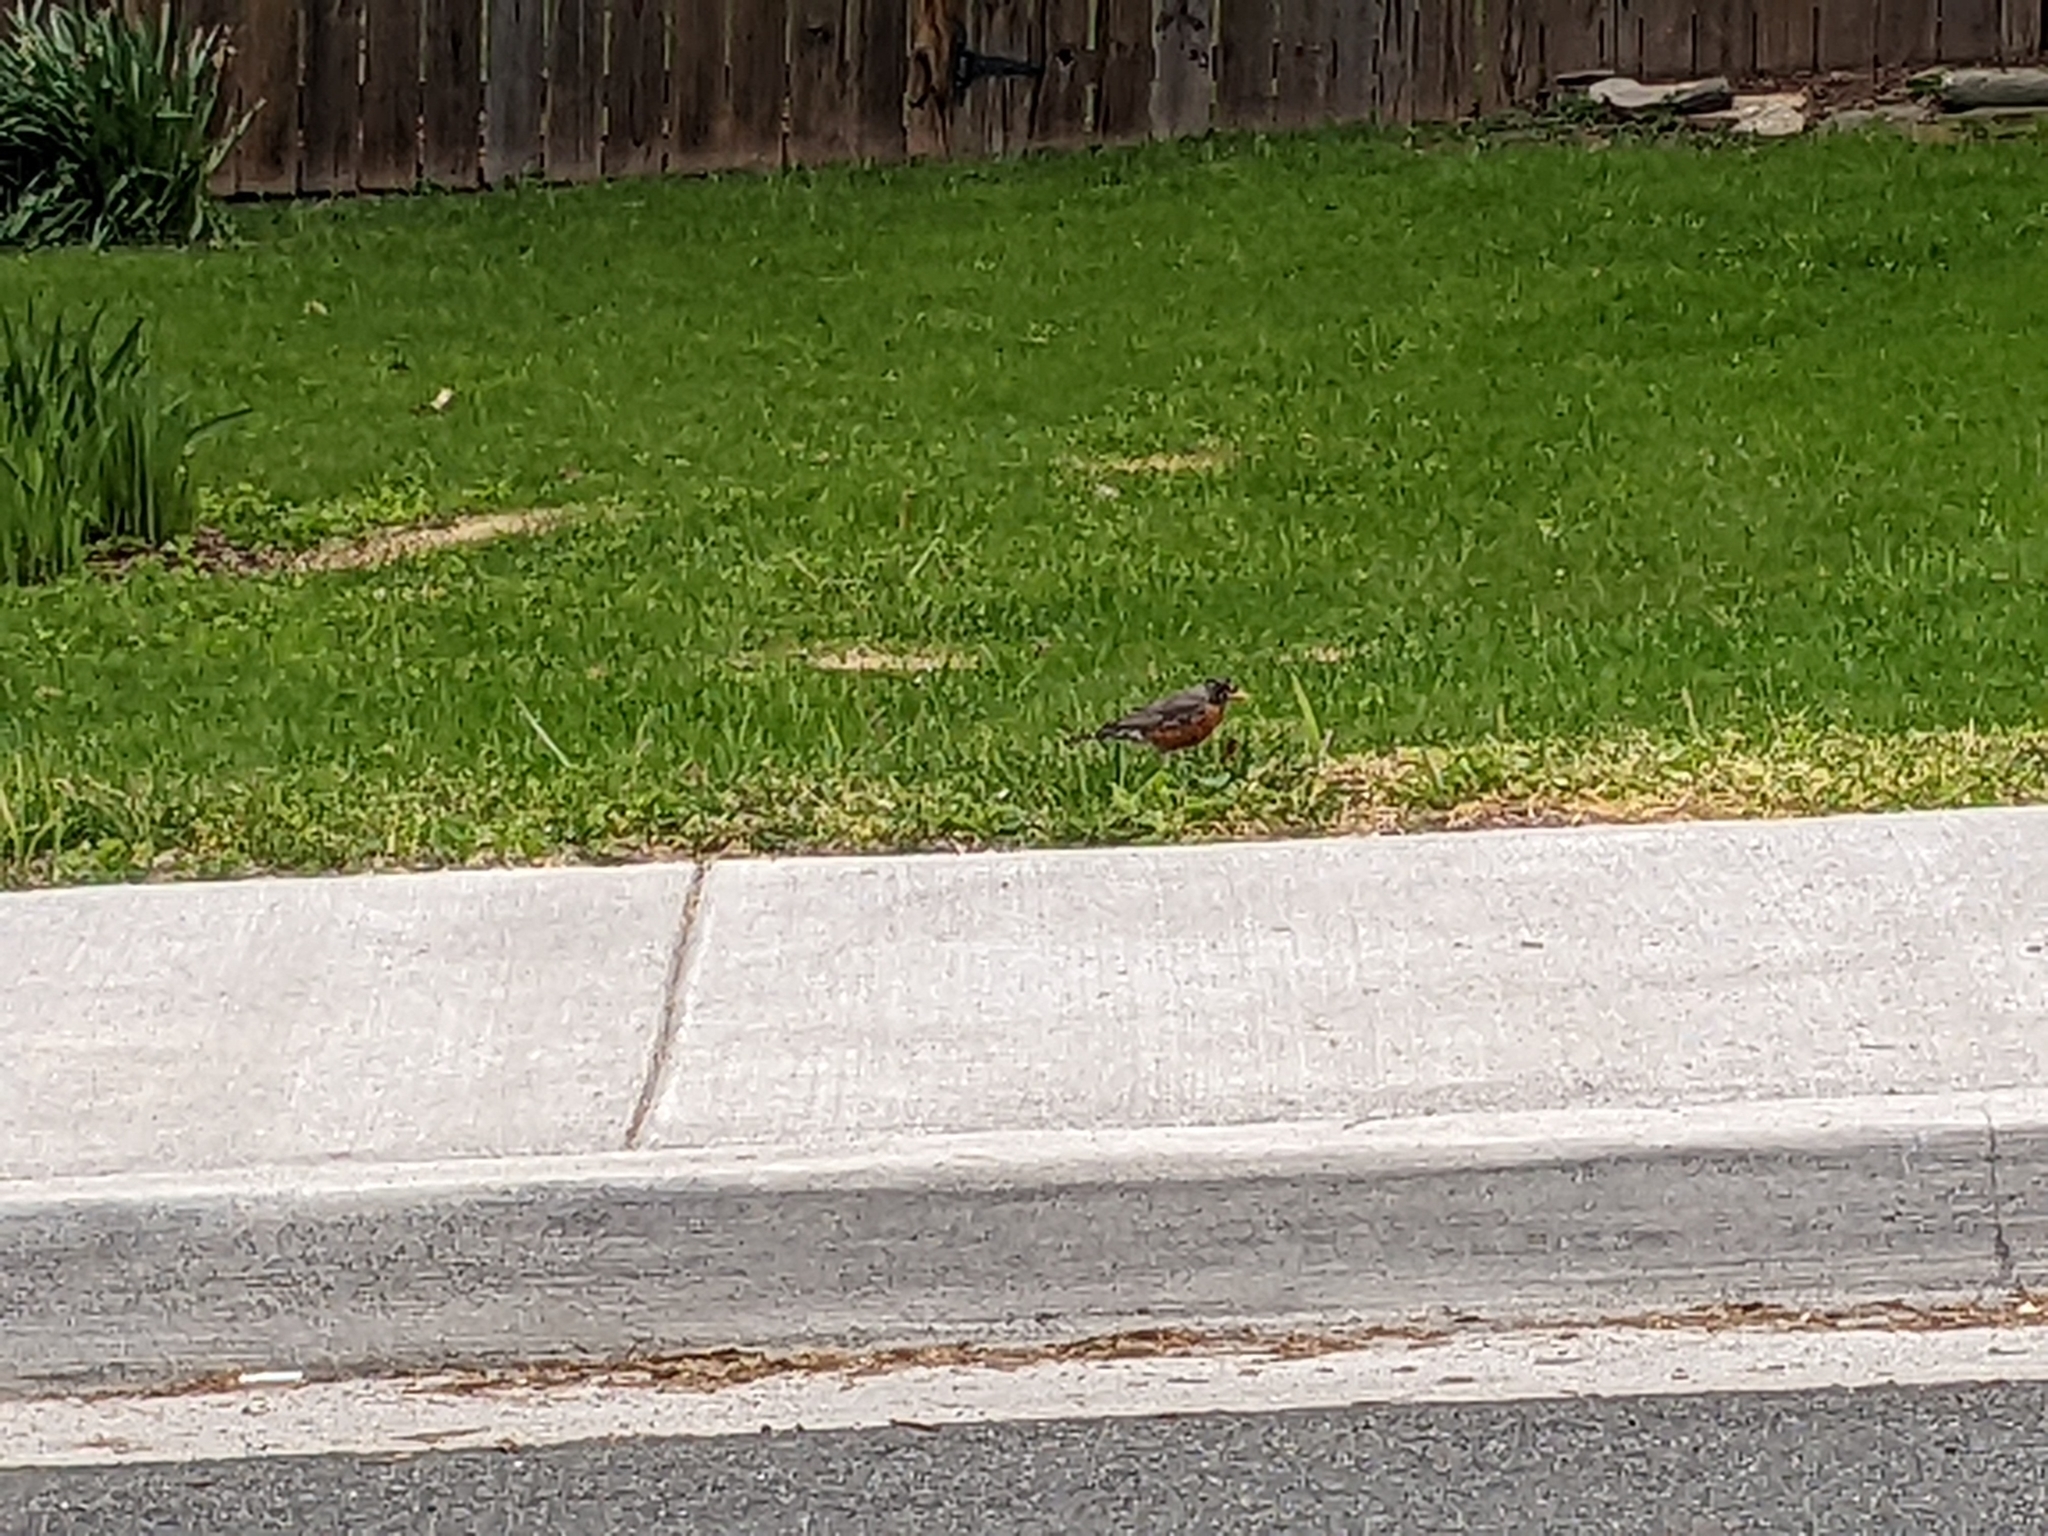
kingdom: Animalia
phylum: Chordata
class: Aves
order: Passeriformes
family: Turdidae
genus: Turdus
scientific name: Turdus migratorius
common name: American robin
